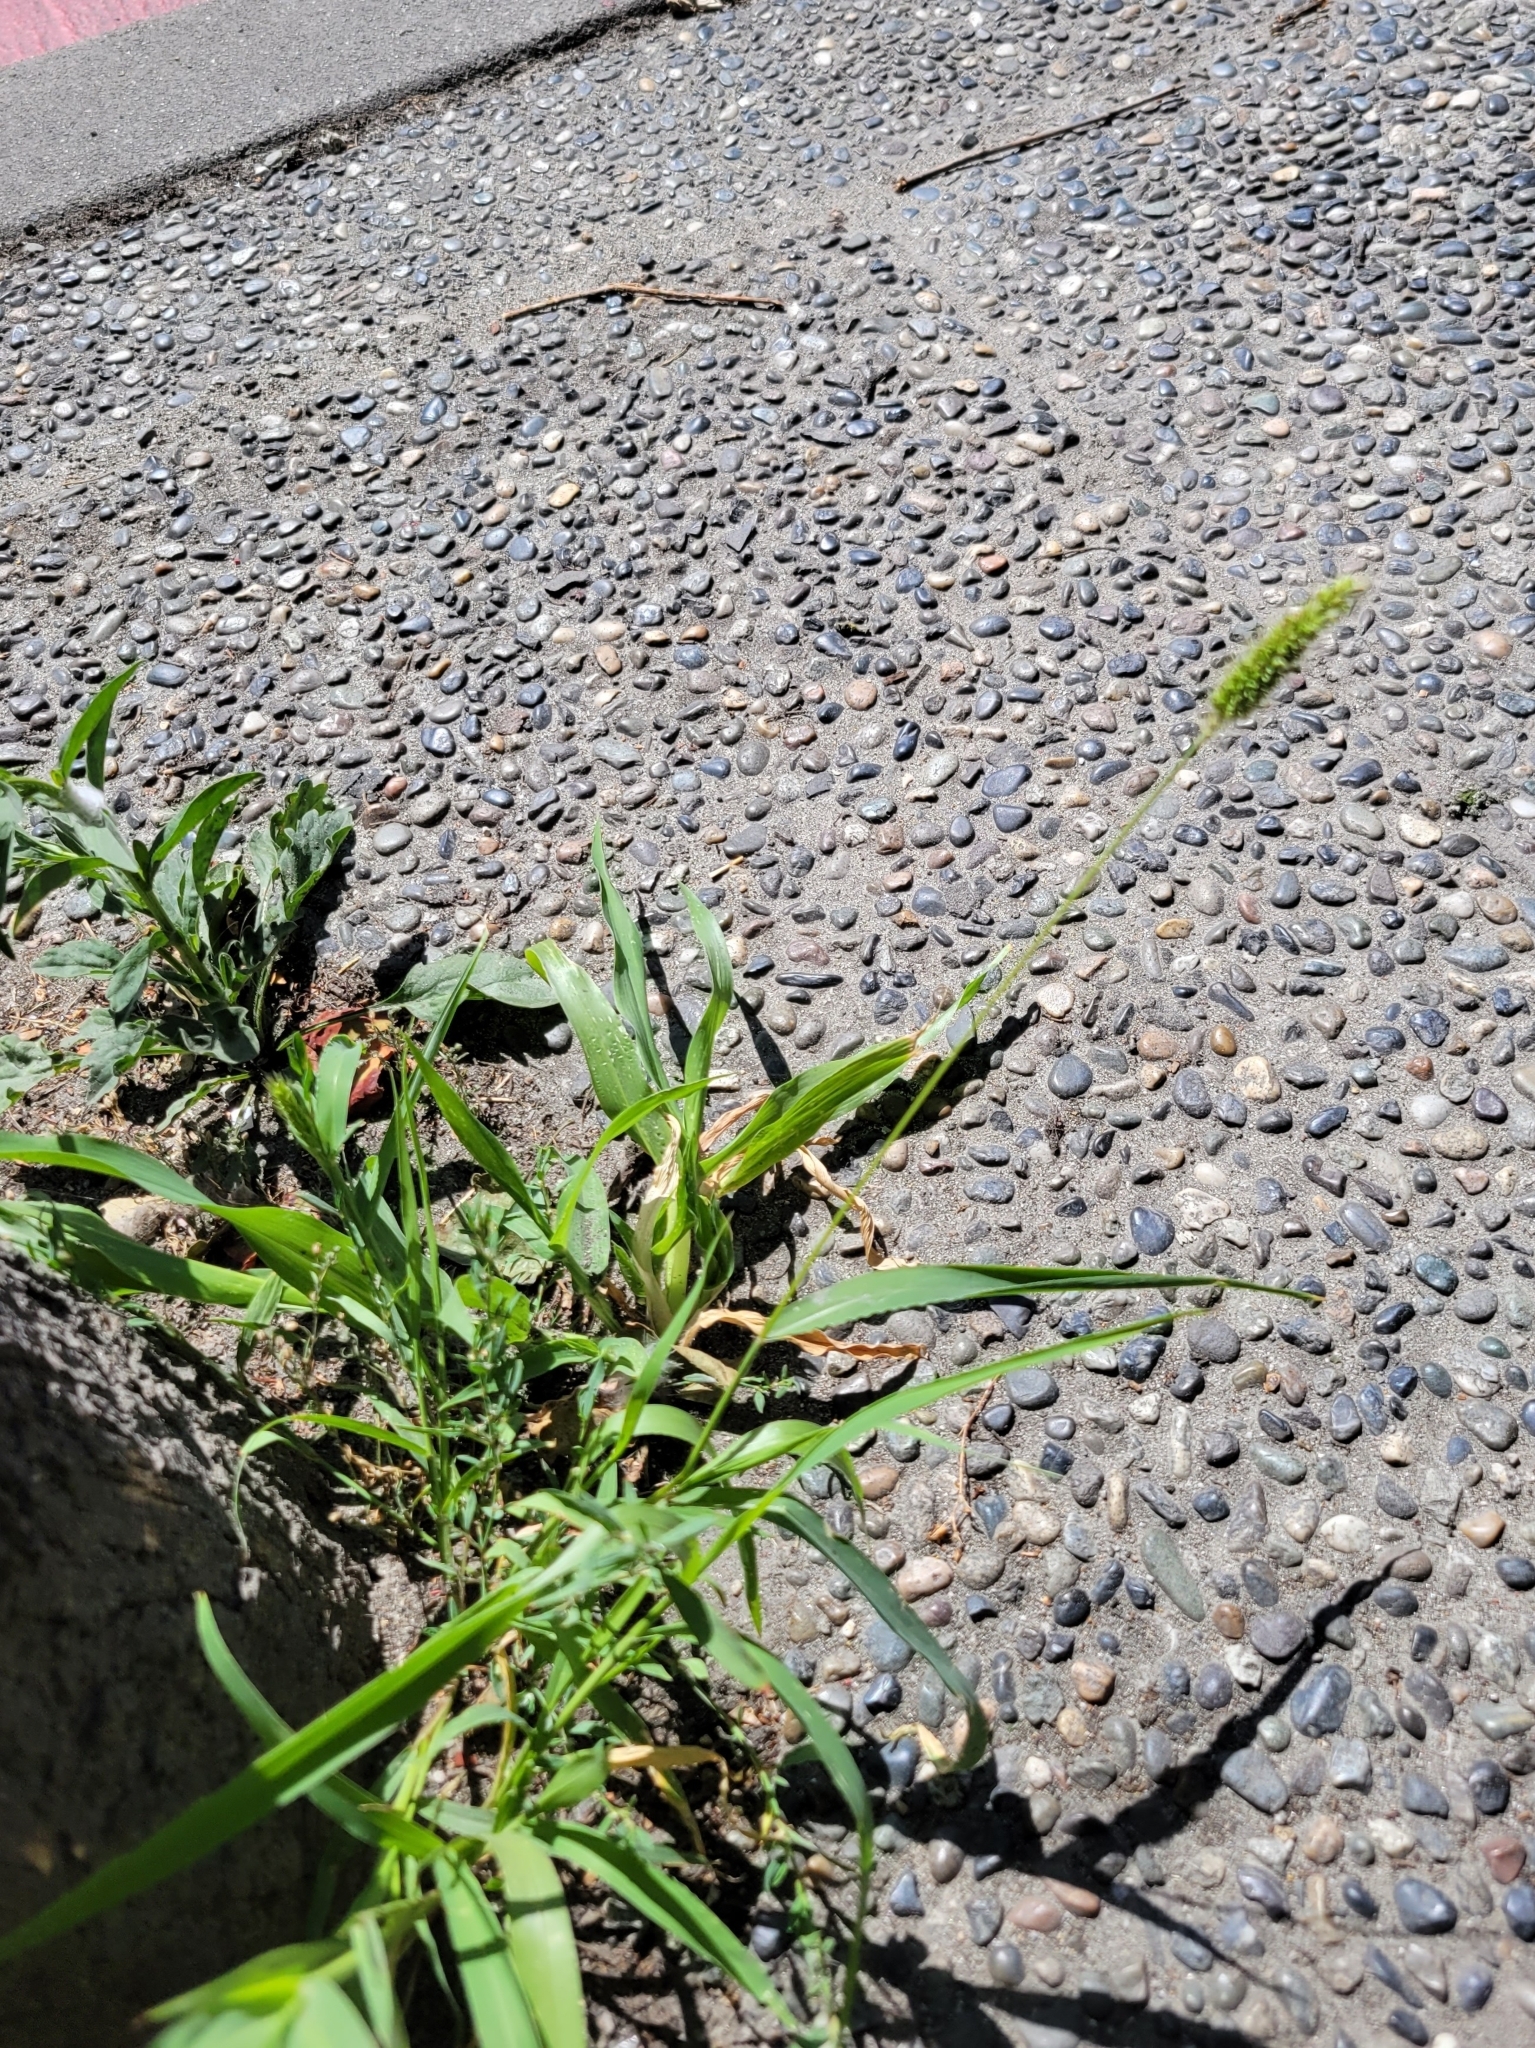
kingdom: Plantae
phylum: Tracheophyta
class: Liliopsida
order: Poales
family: Poaceae
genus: Setaria
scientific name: Setaria viridis
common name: Green bristlegrass
